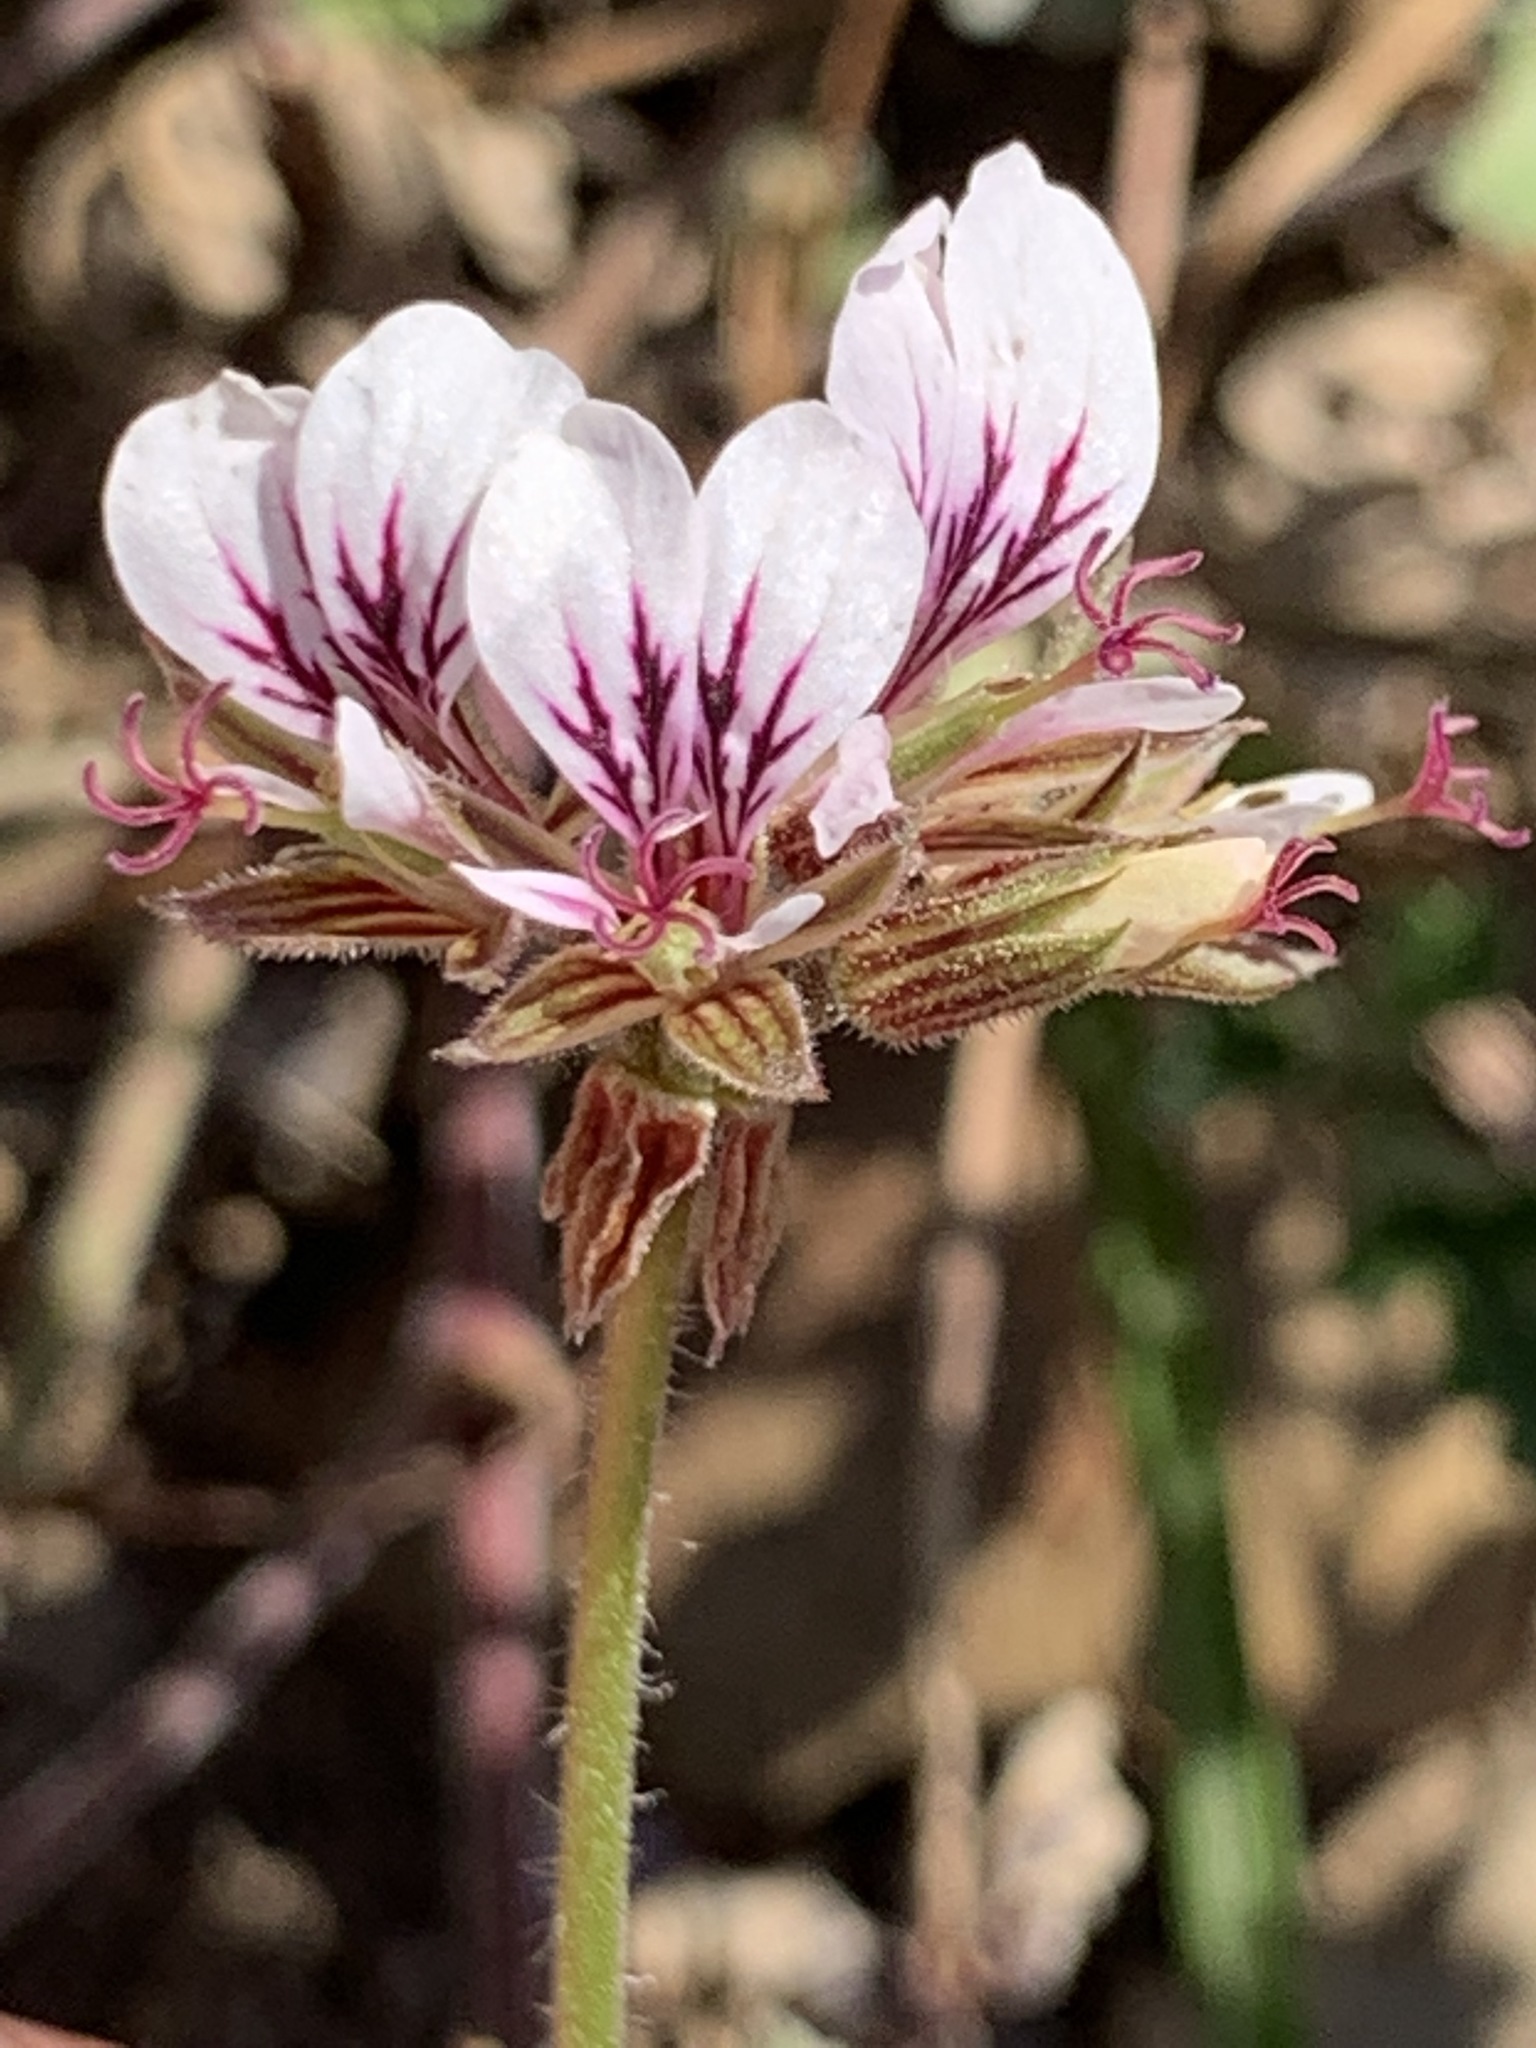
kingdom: Plantae
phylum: Tracheophyta
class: Magnoliopsida
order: Geraniales
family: Geraniaceae
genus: Pelargonium
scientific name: Pelargonium candicans
